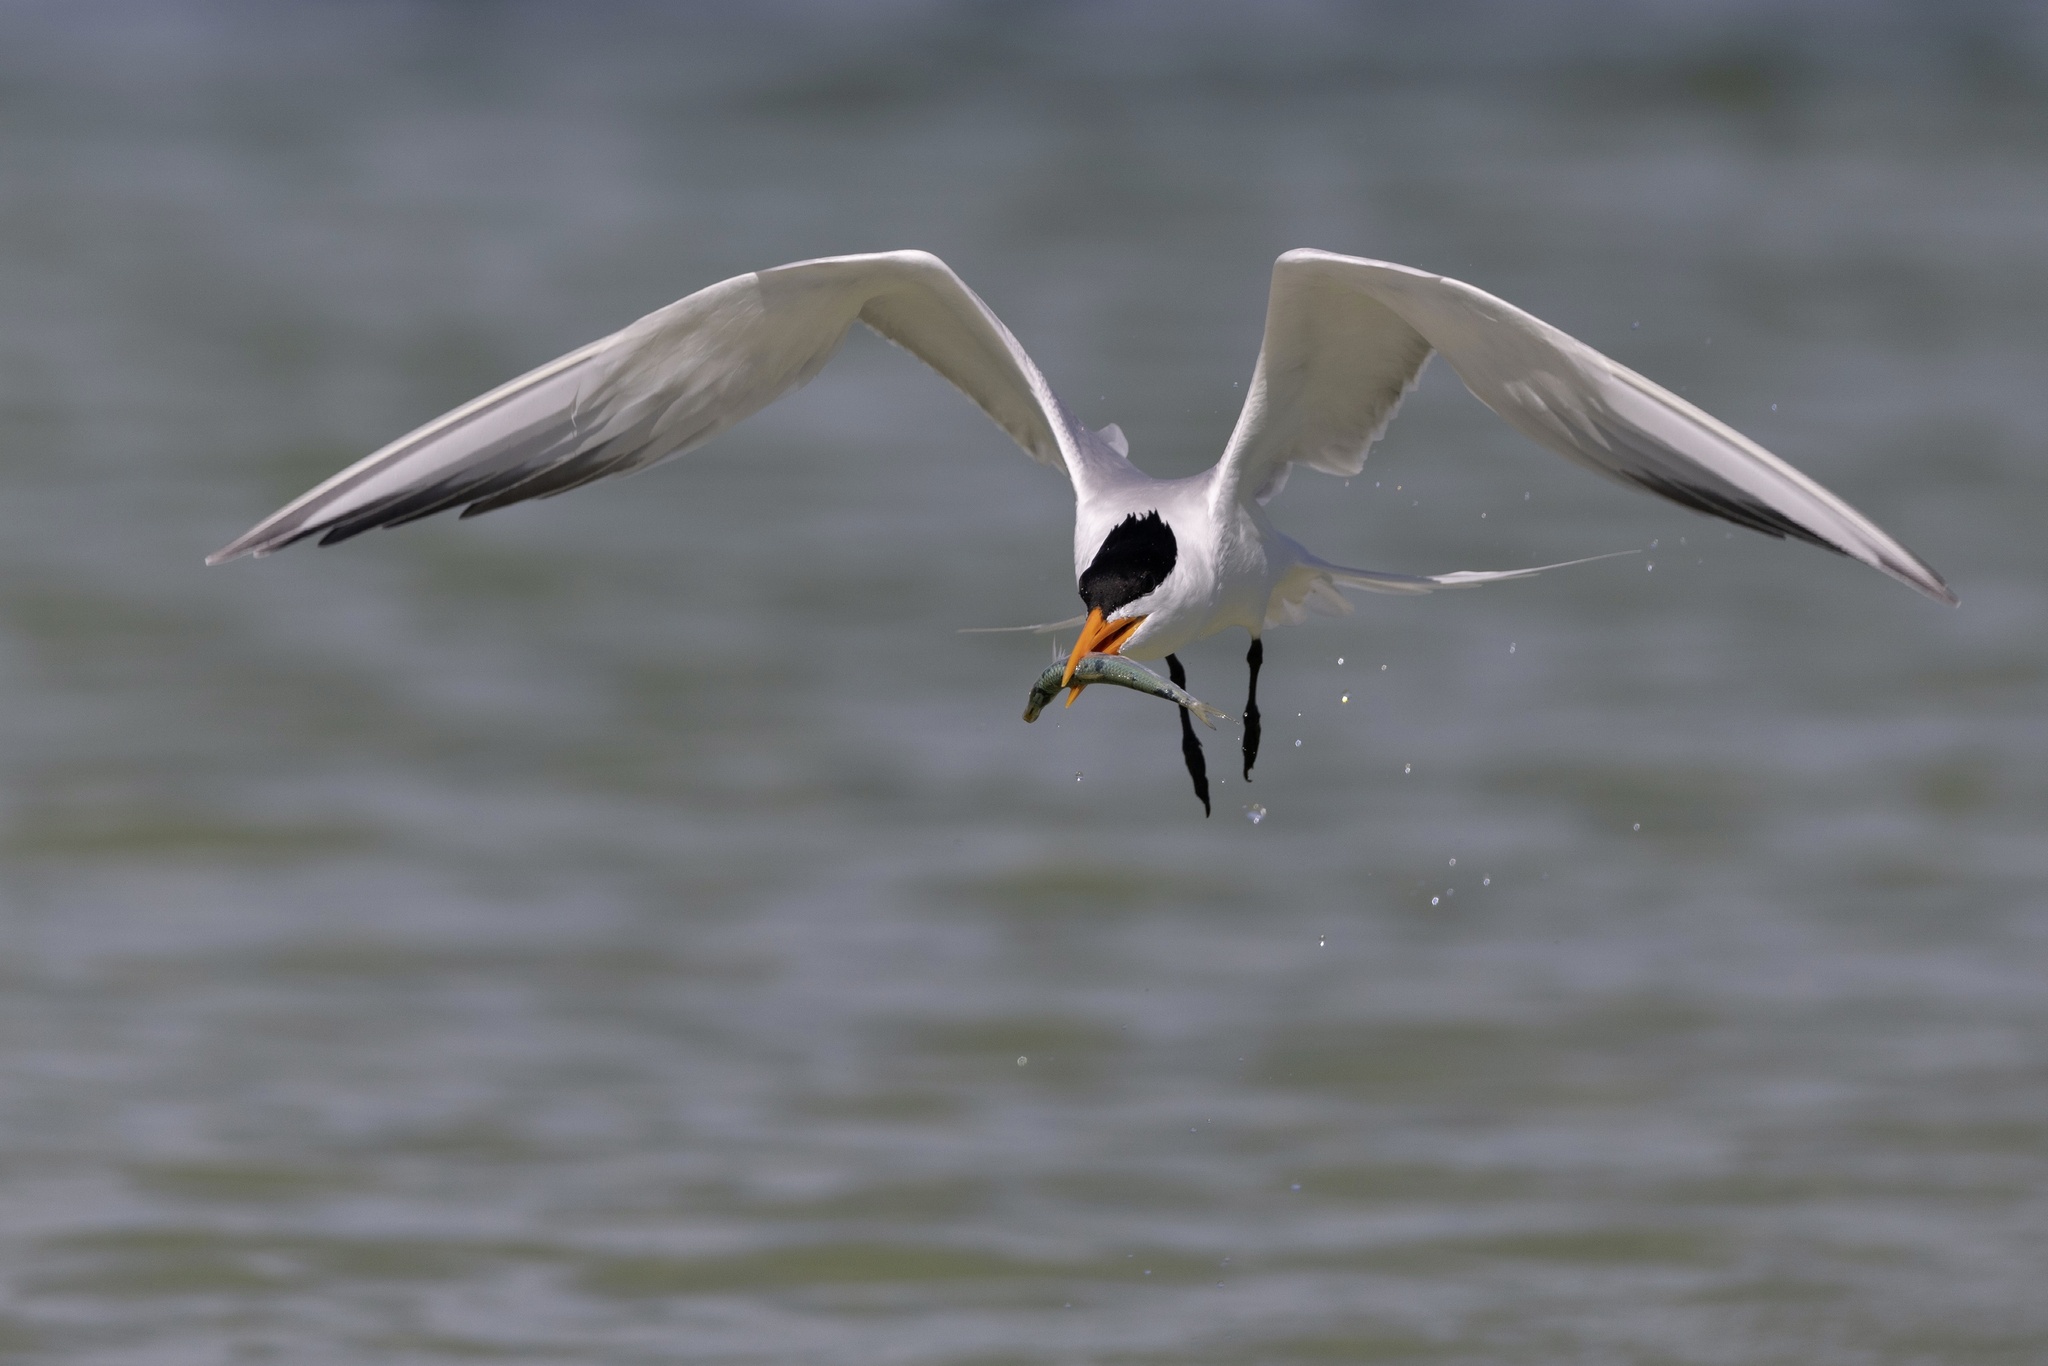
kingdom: Animalia
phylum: Chordata
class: Aves
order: Charadriiformes
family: Laridae
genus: Thalasseus
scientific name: Thalasseus maximus
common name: Royal tern
